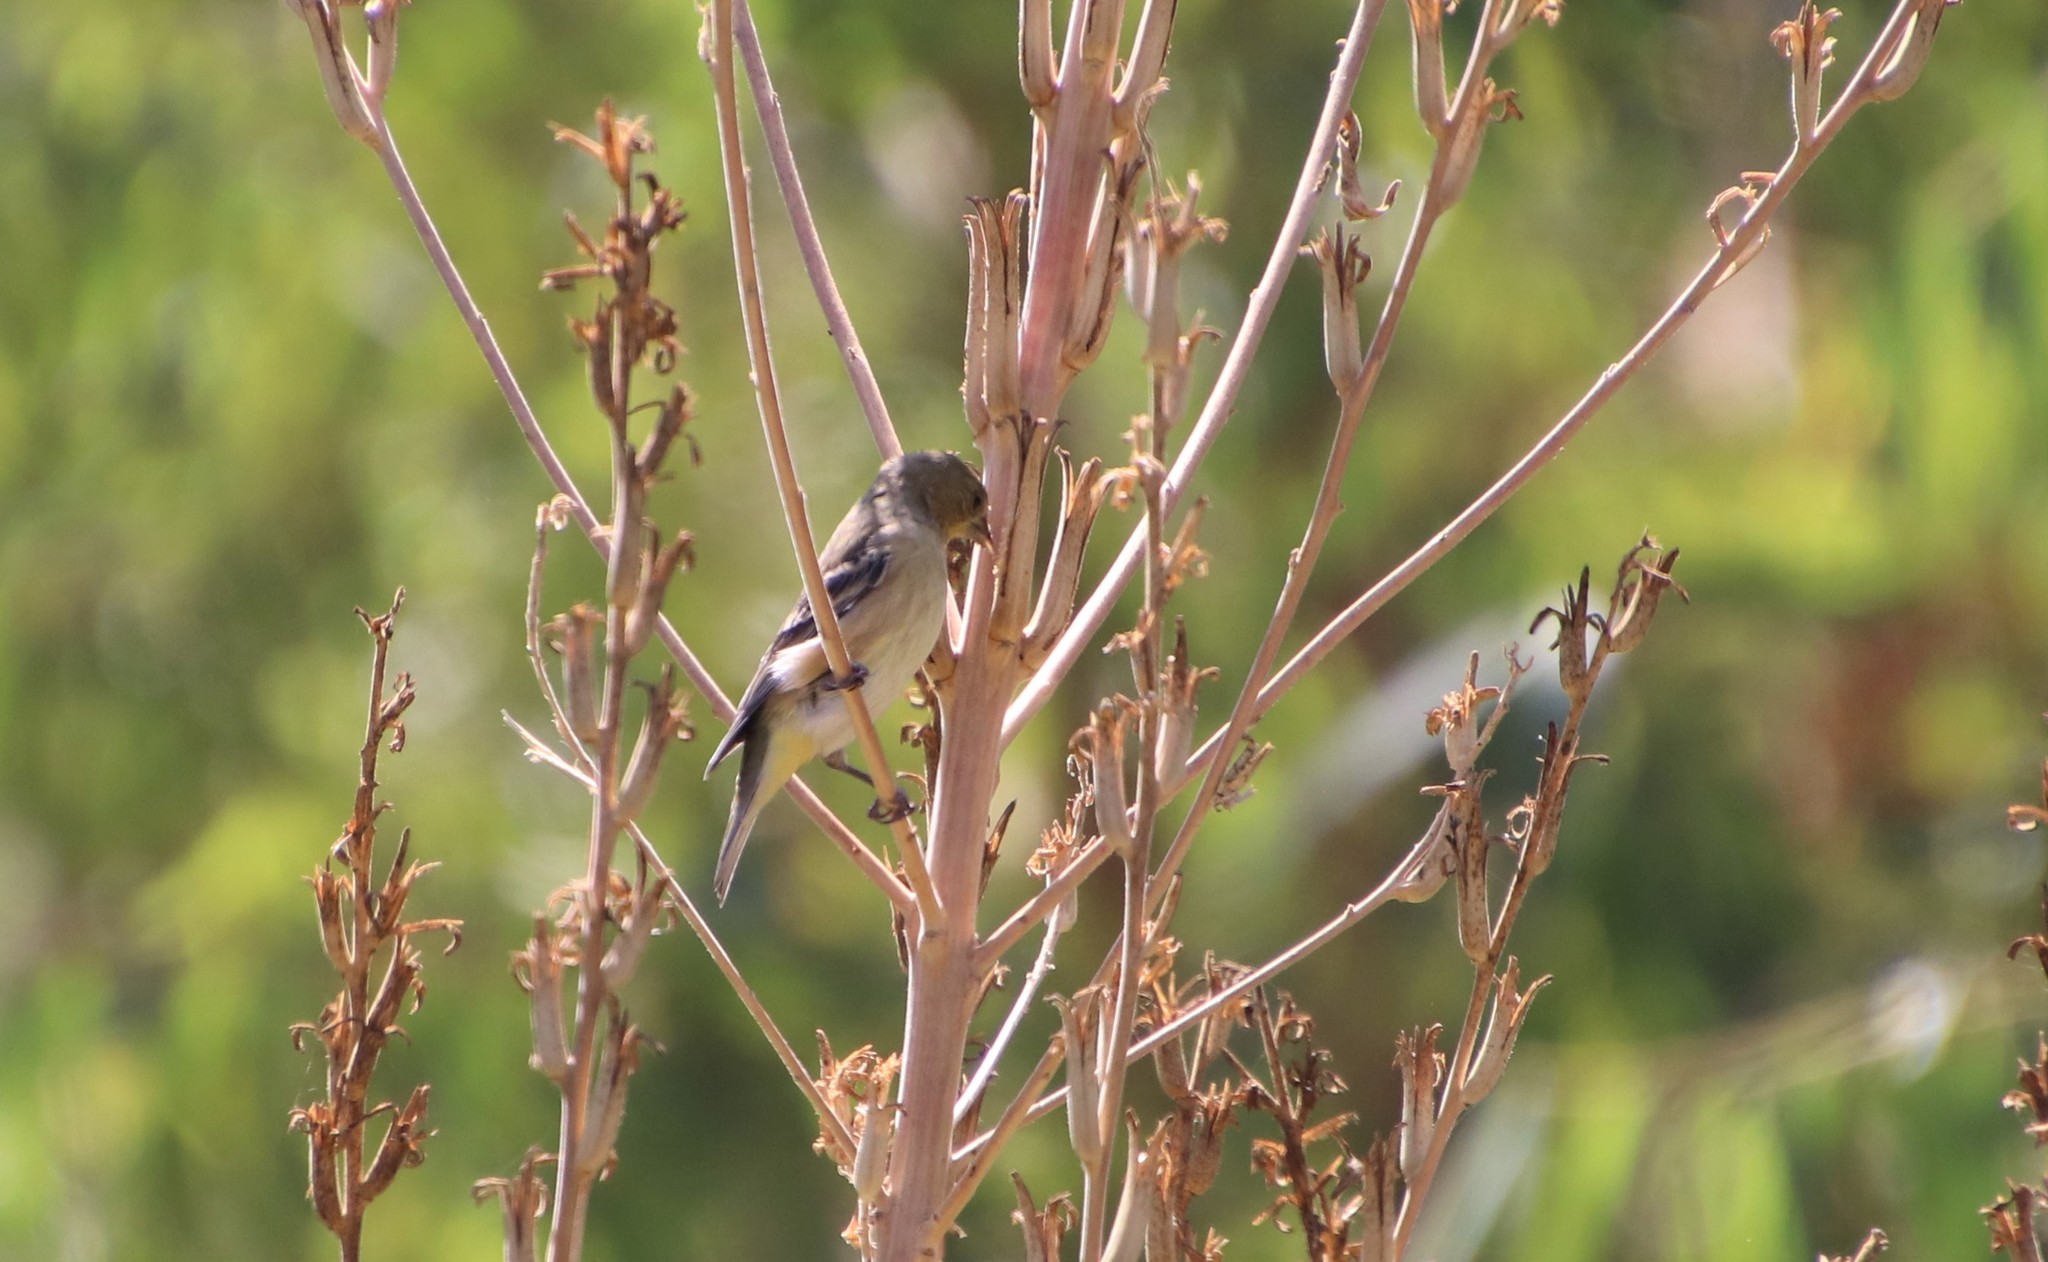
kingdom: Animalia
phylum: Chordata
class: Aves
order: Passeriformes
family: Fringillidae
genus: Spinus
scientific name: Spinus psaltria
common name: Lesser goldfinch
